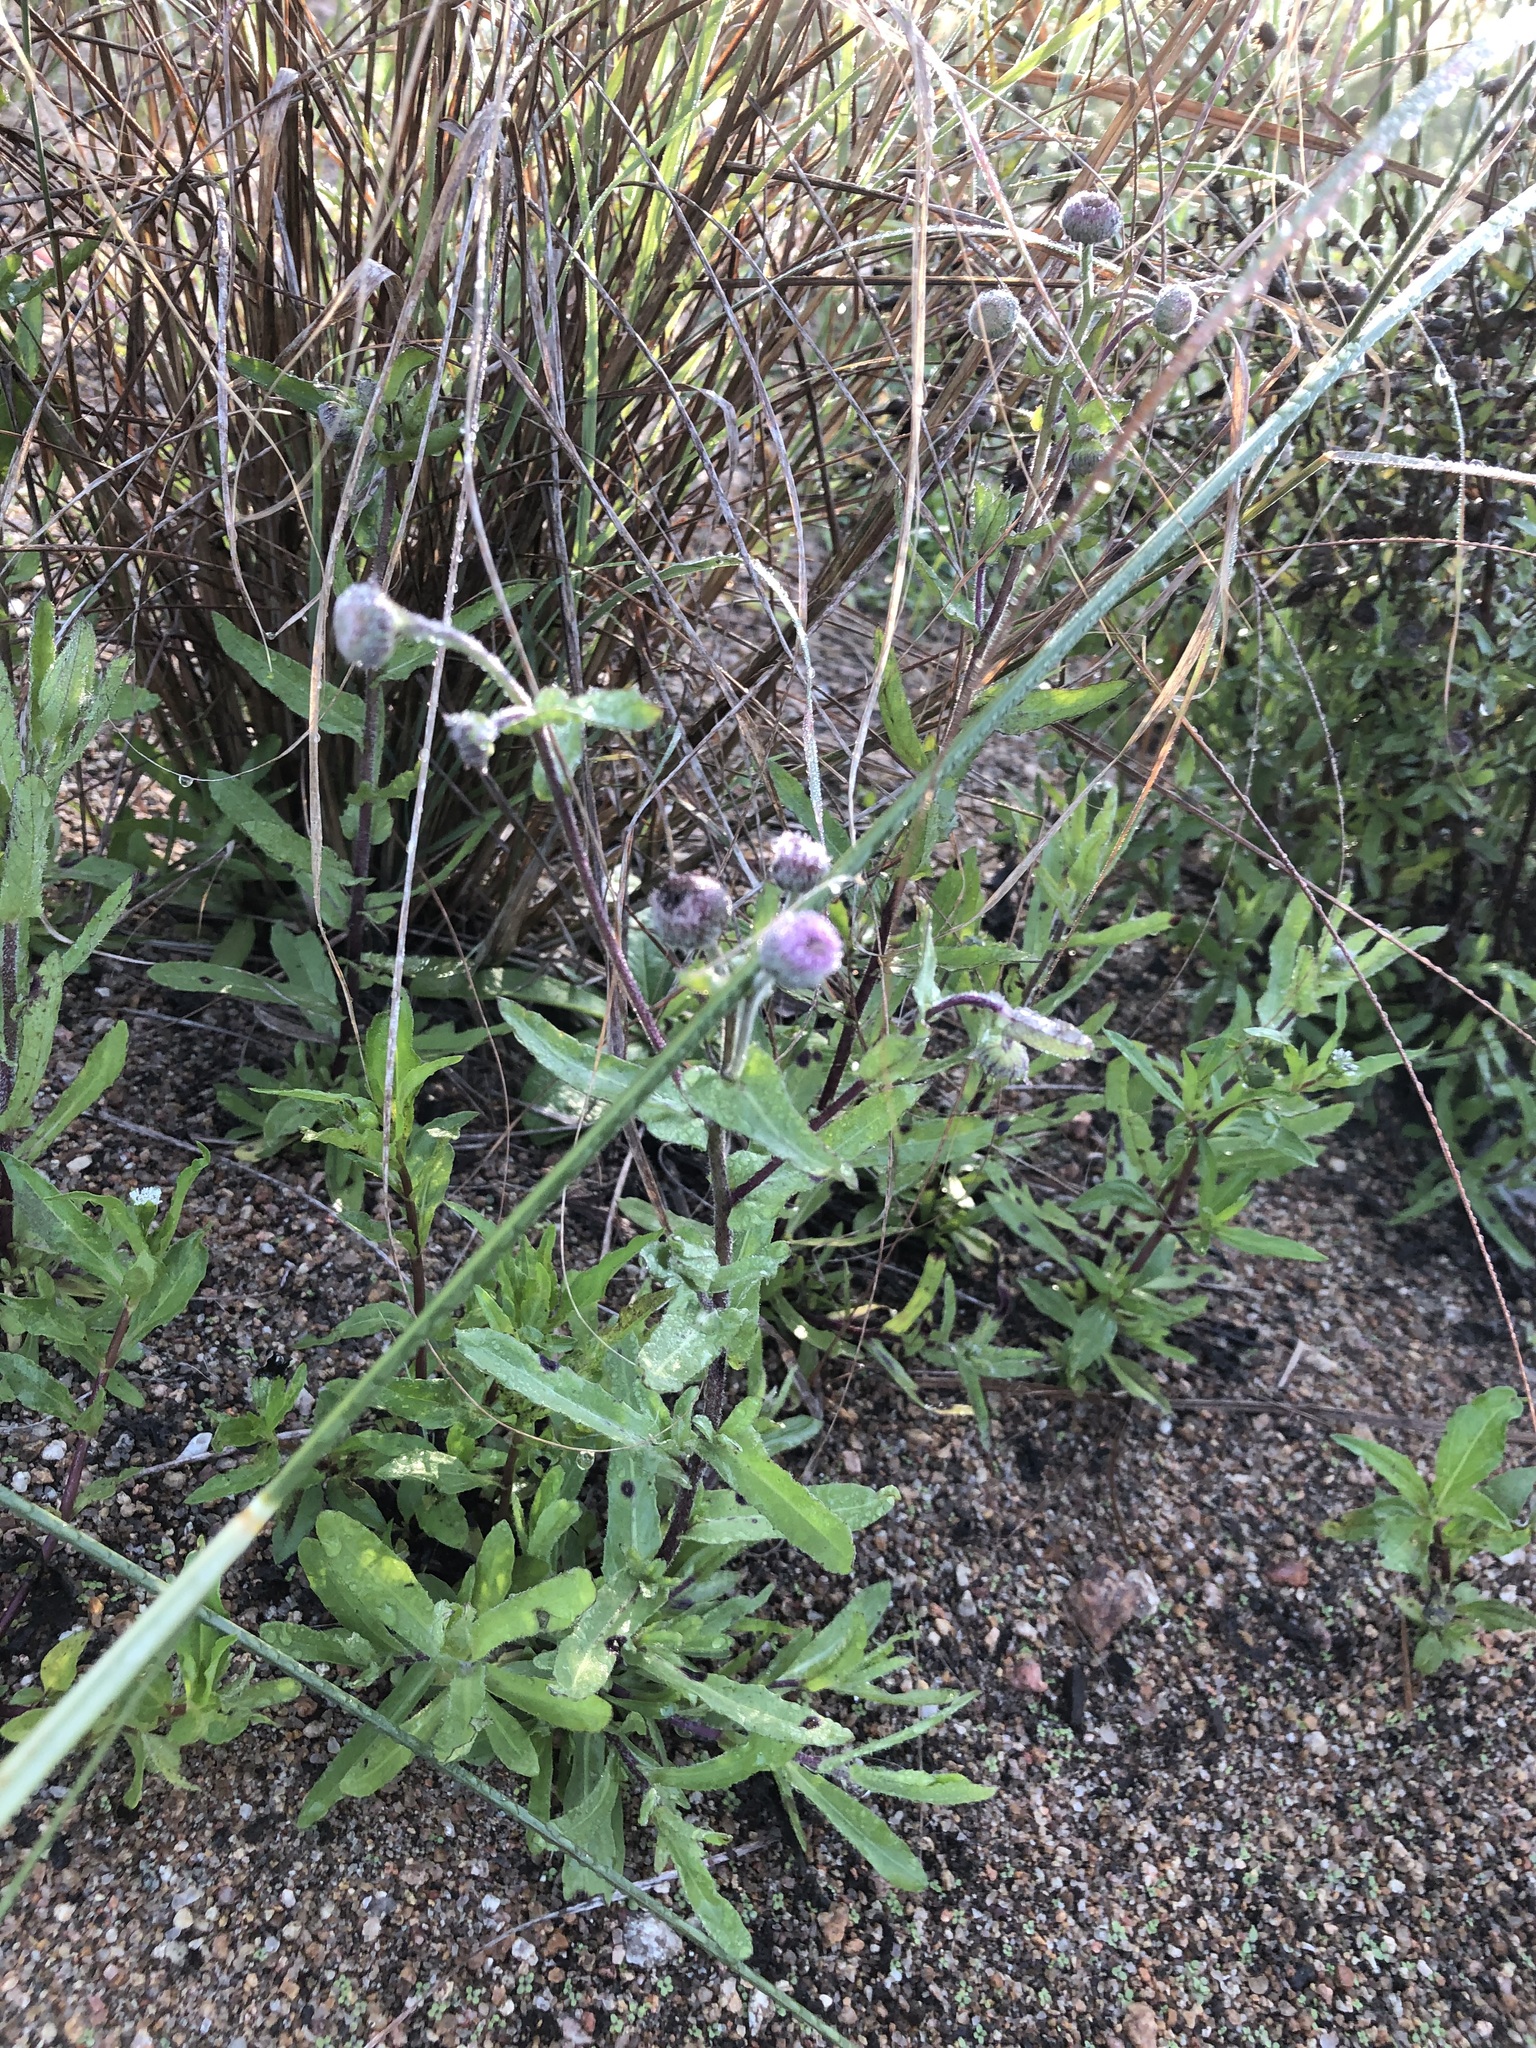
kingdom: Plantae
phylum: Tracheophyta
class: Magnoliopsida
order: Asterales
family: Asteraceae
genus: Doellia
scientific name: Doellia cafra
